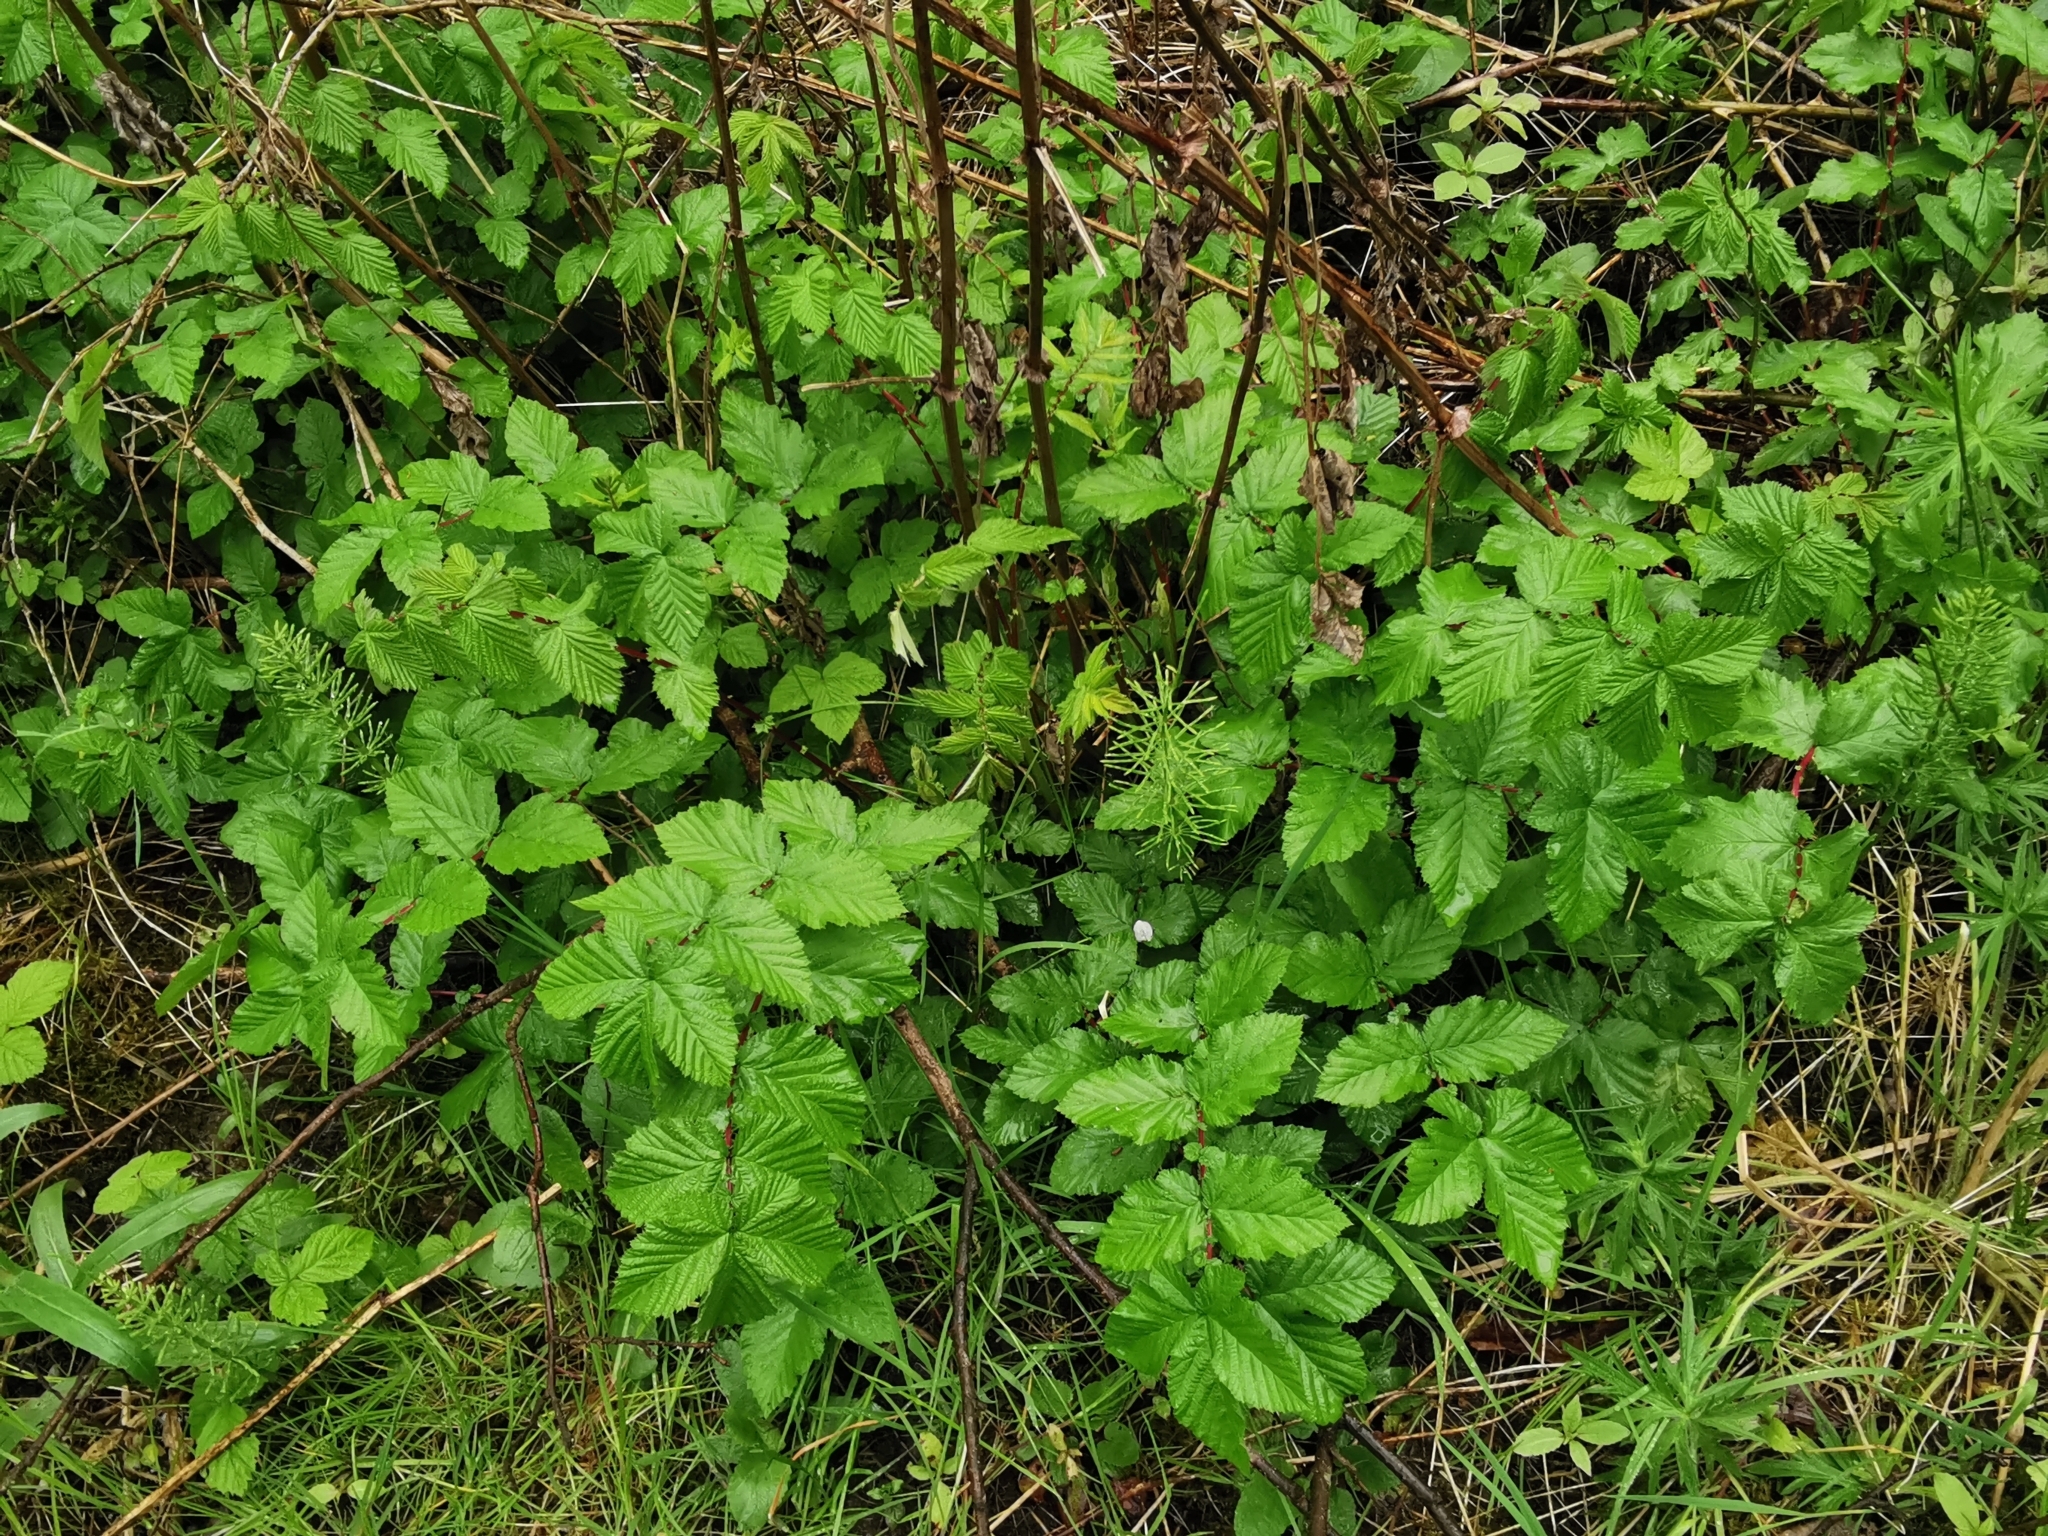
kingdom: Plantae
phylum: Tracheophyta
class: Magnoliopsida
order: Rosales
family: Rosaceae
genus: Filipendula
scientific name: Filipendula ulmaria
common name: Meadowsweet
